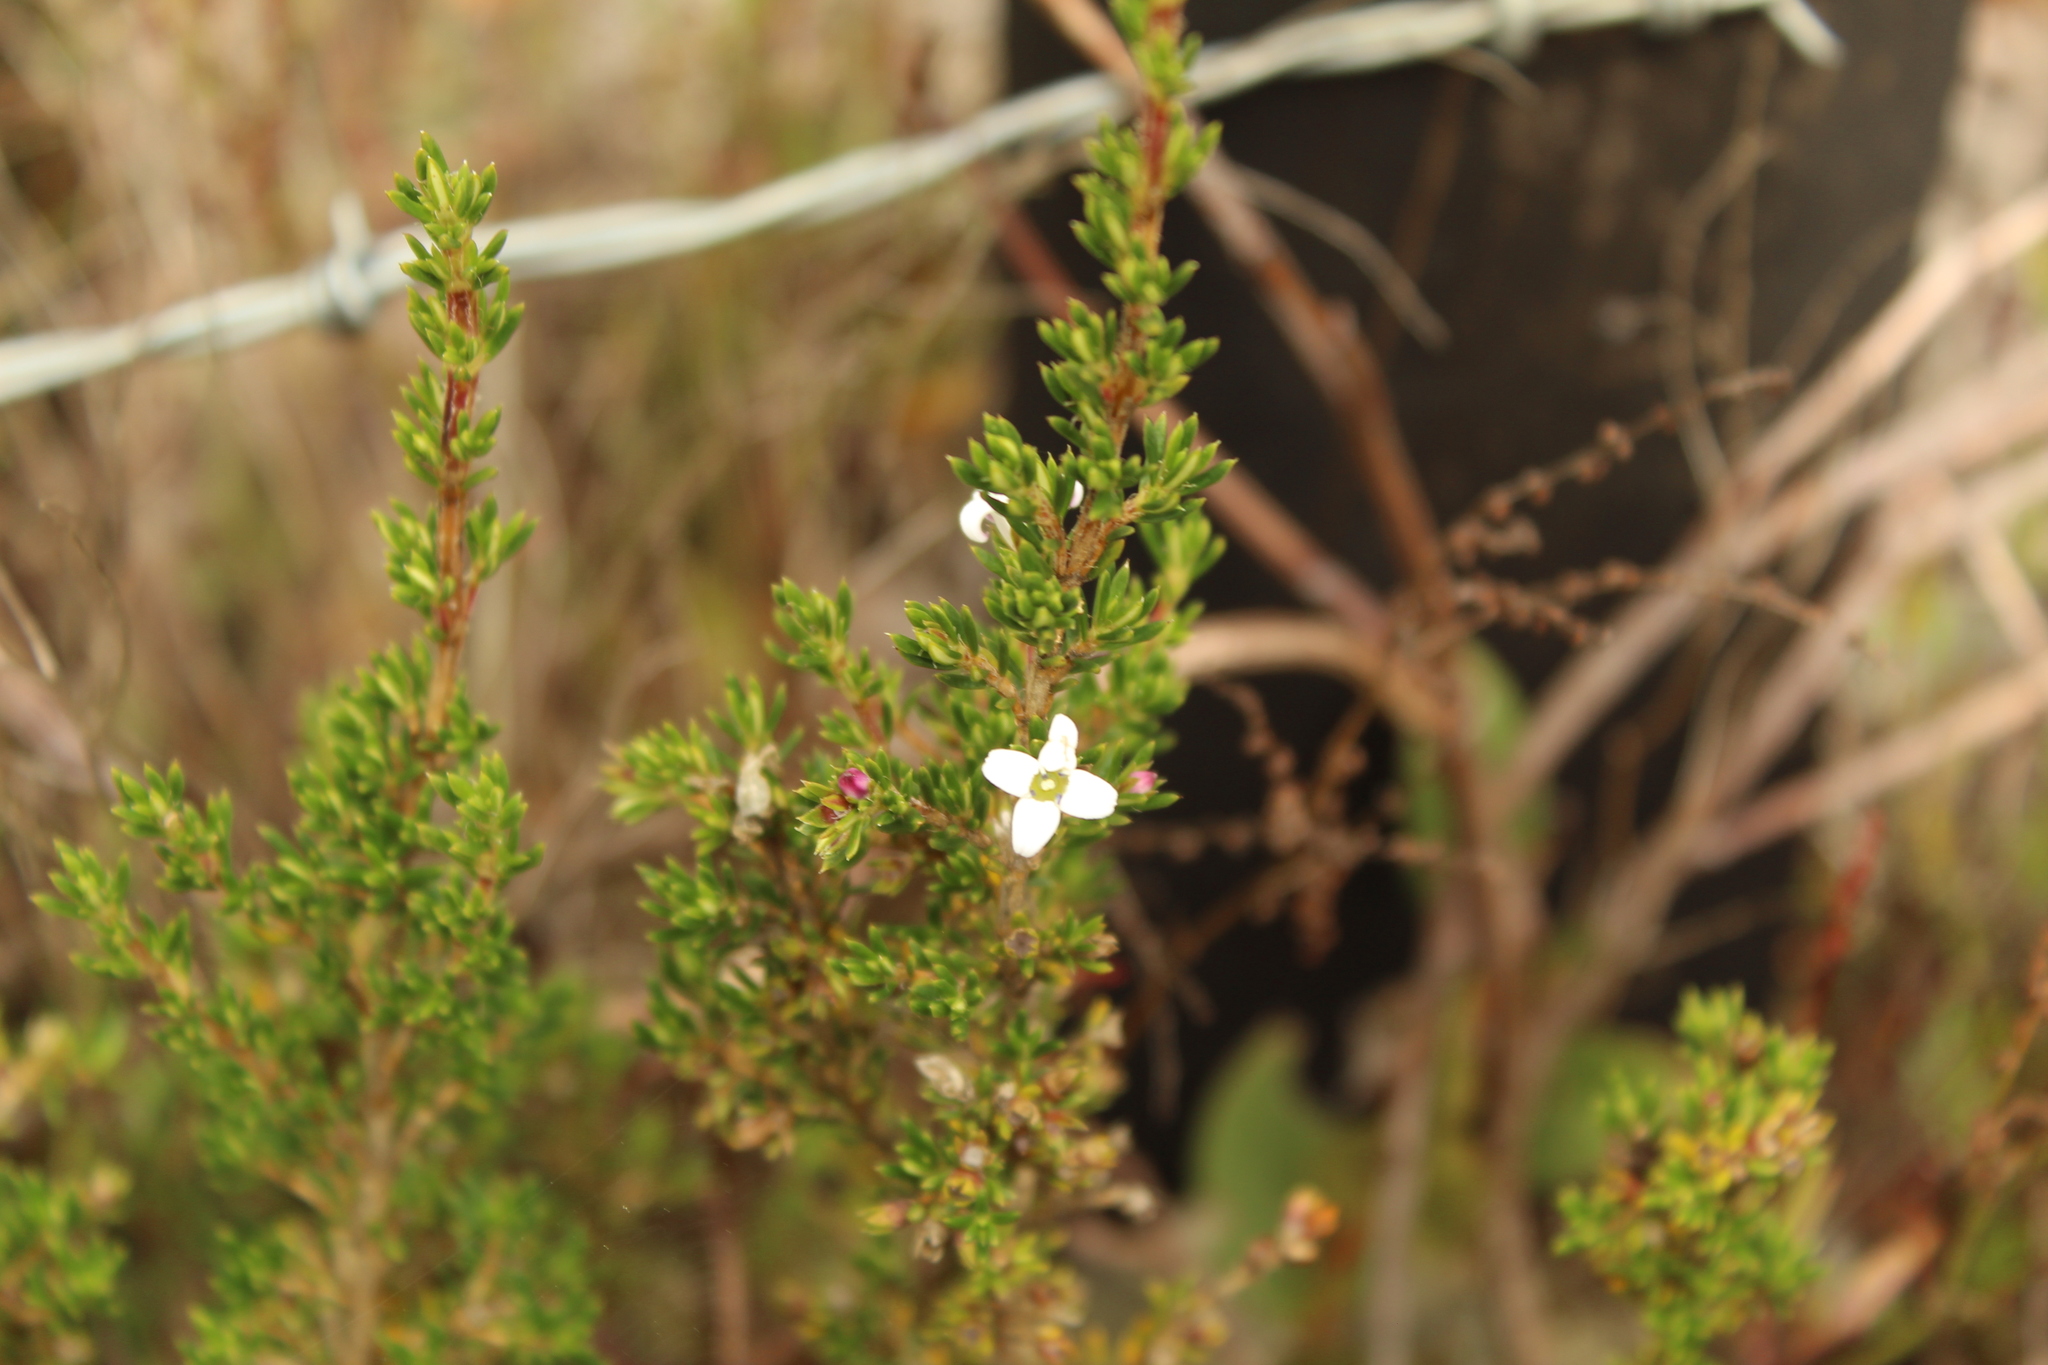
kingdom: Plantae
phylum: Tracheophyta
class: Magnoliopsida
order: Gentianales
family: Rubiaceae
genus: Arcytophyllum
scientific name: Arcytophyllum nitidum
